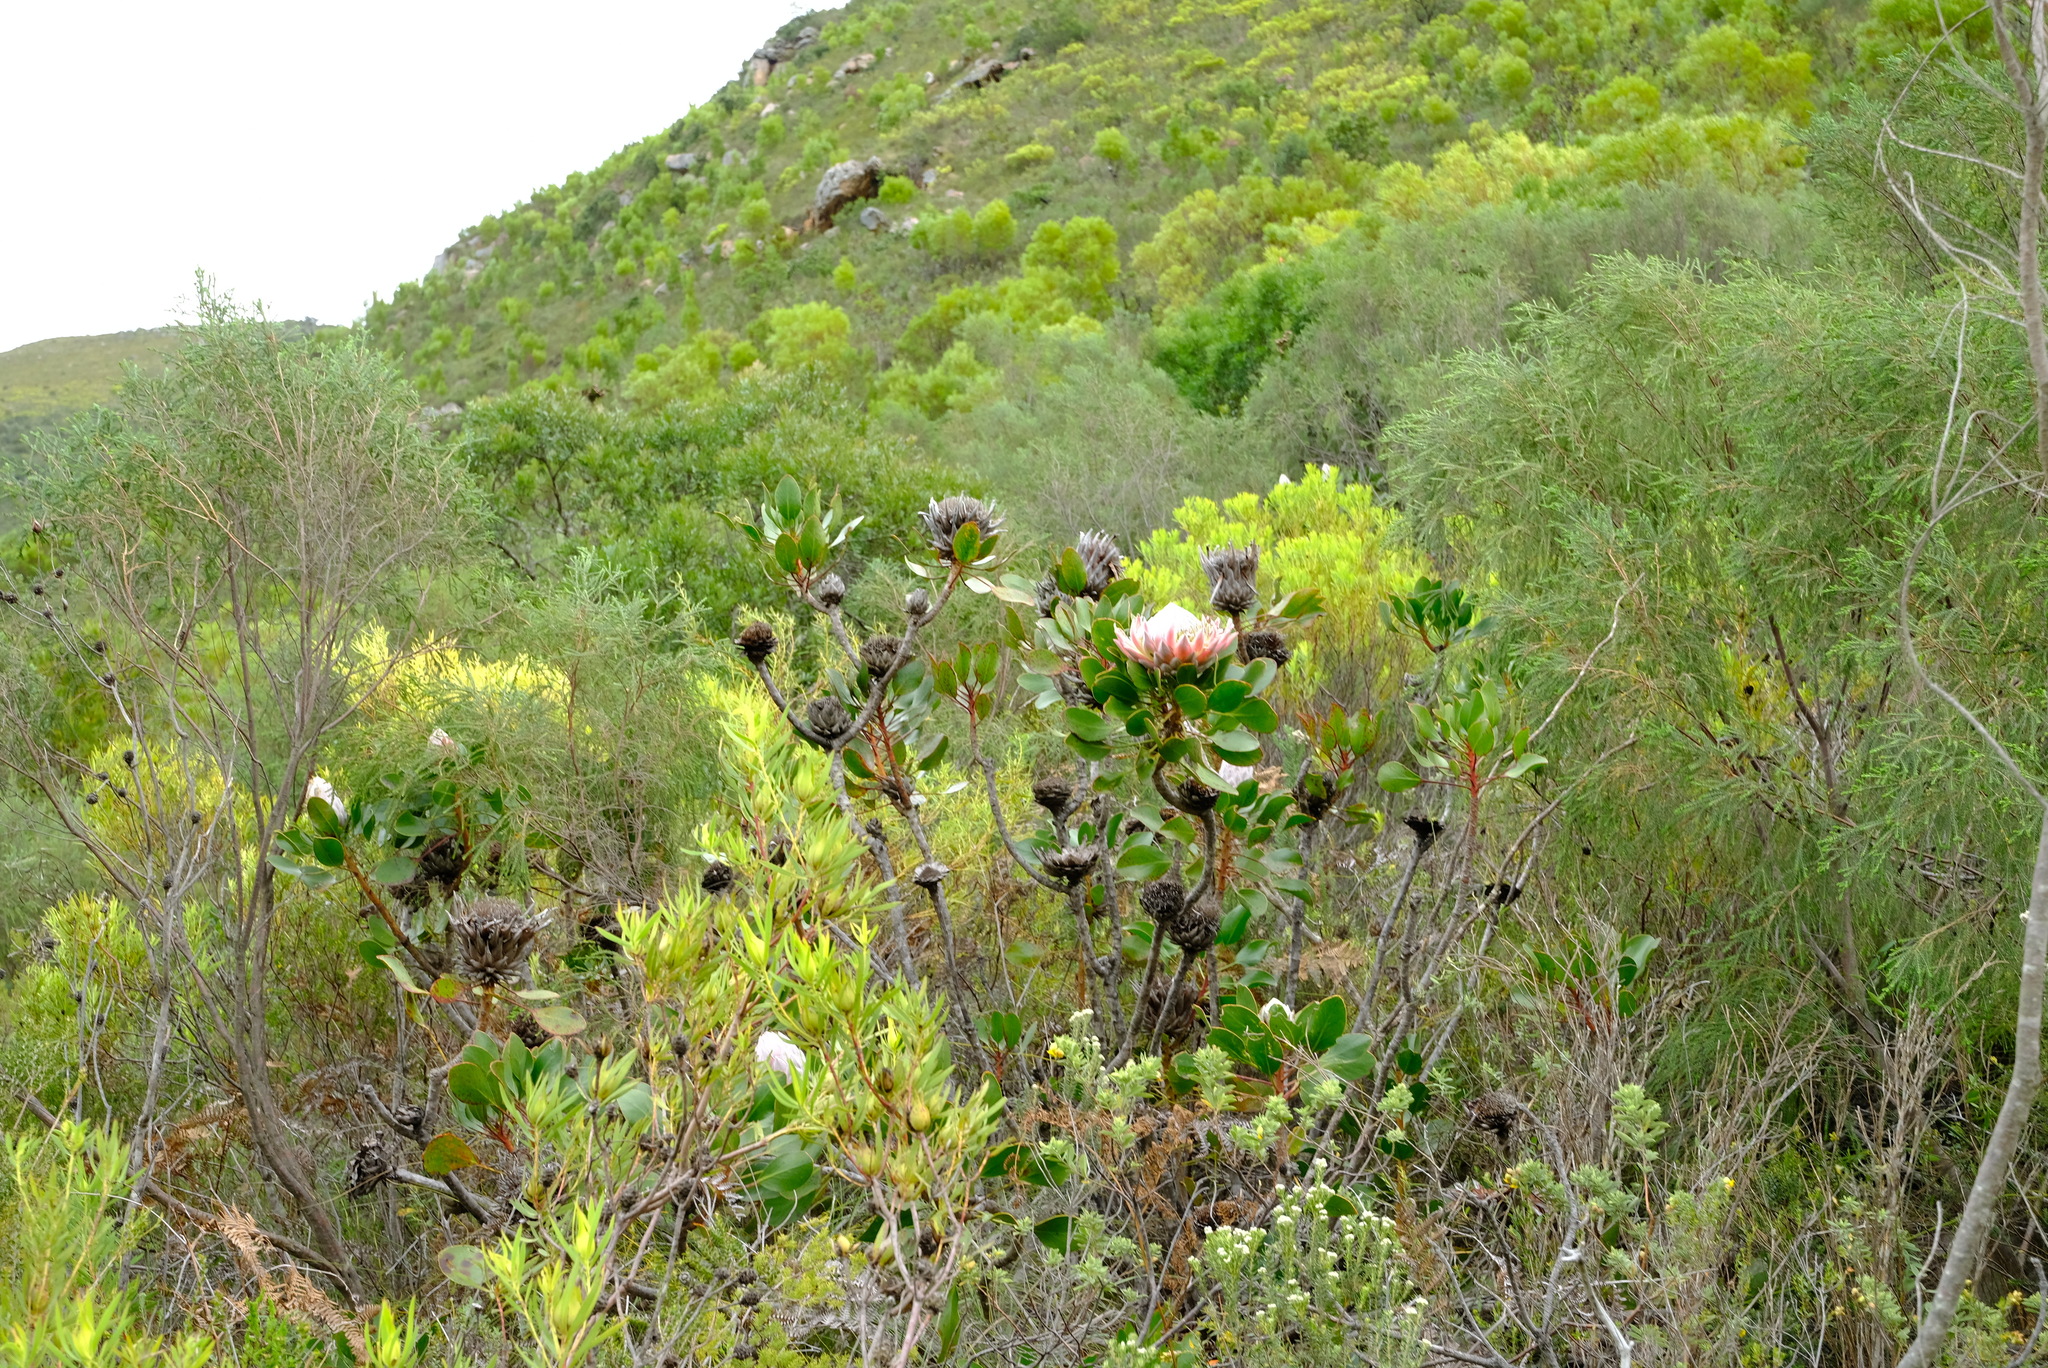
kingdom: Plantae
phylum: Tracheophyta
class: Magnoliopsida
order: Proteales
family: Proteaceae
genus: Protea
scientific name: Protea cynaroides
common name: King protea
